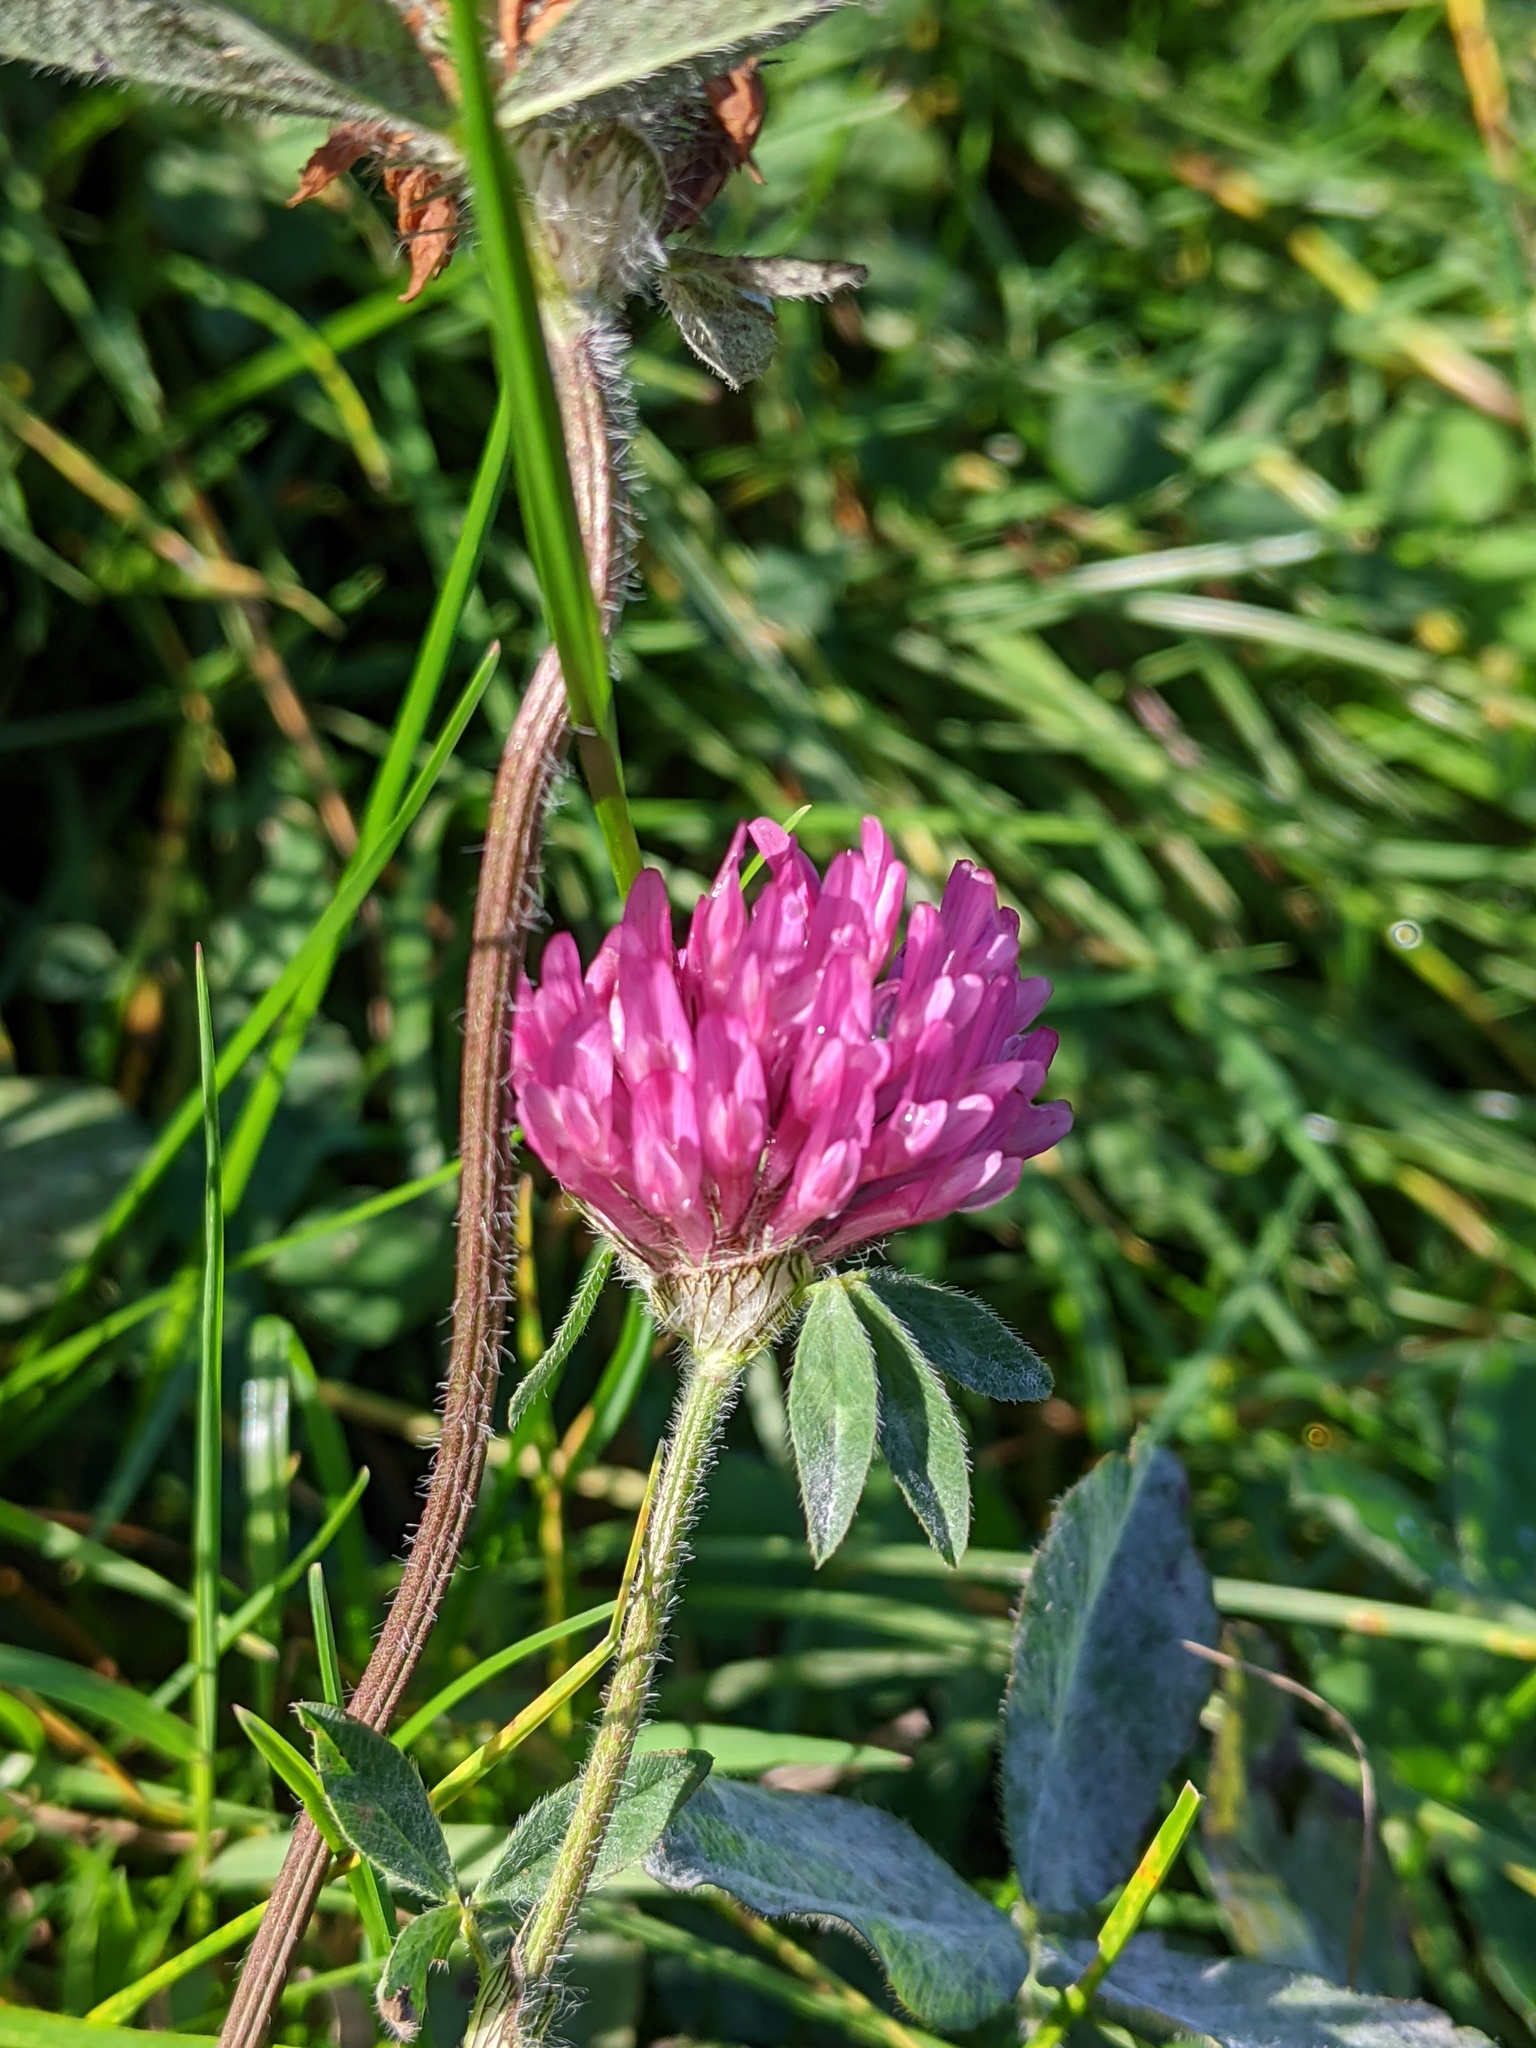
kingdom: Plantae
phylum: Tracheophyta
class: Magnoliopsida
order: Fabales
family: Fabaceae
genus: Trifolium
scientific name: Trifolium pratense
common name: Red clover
